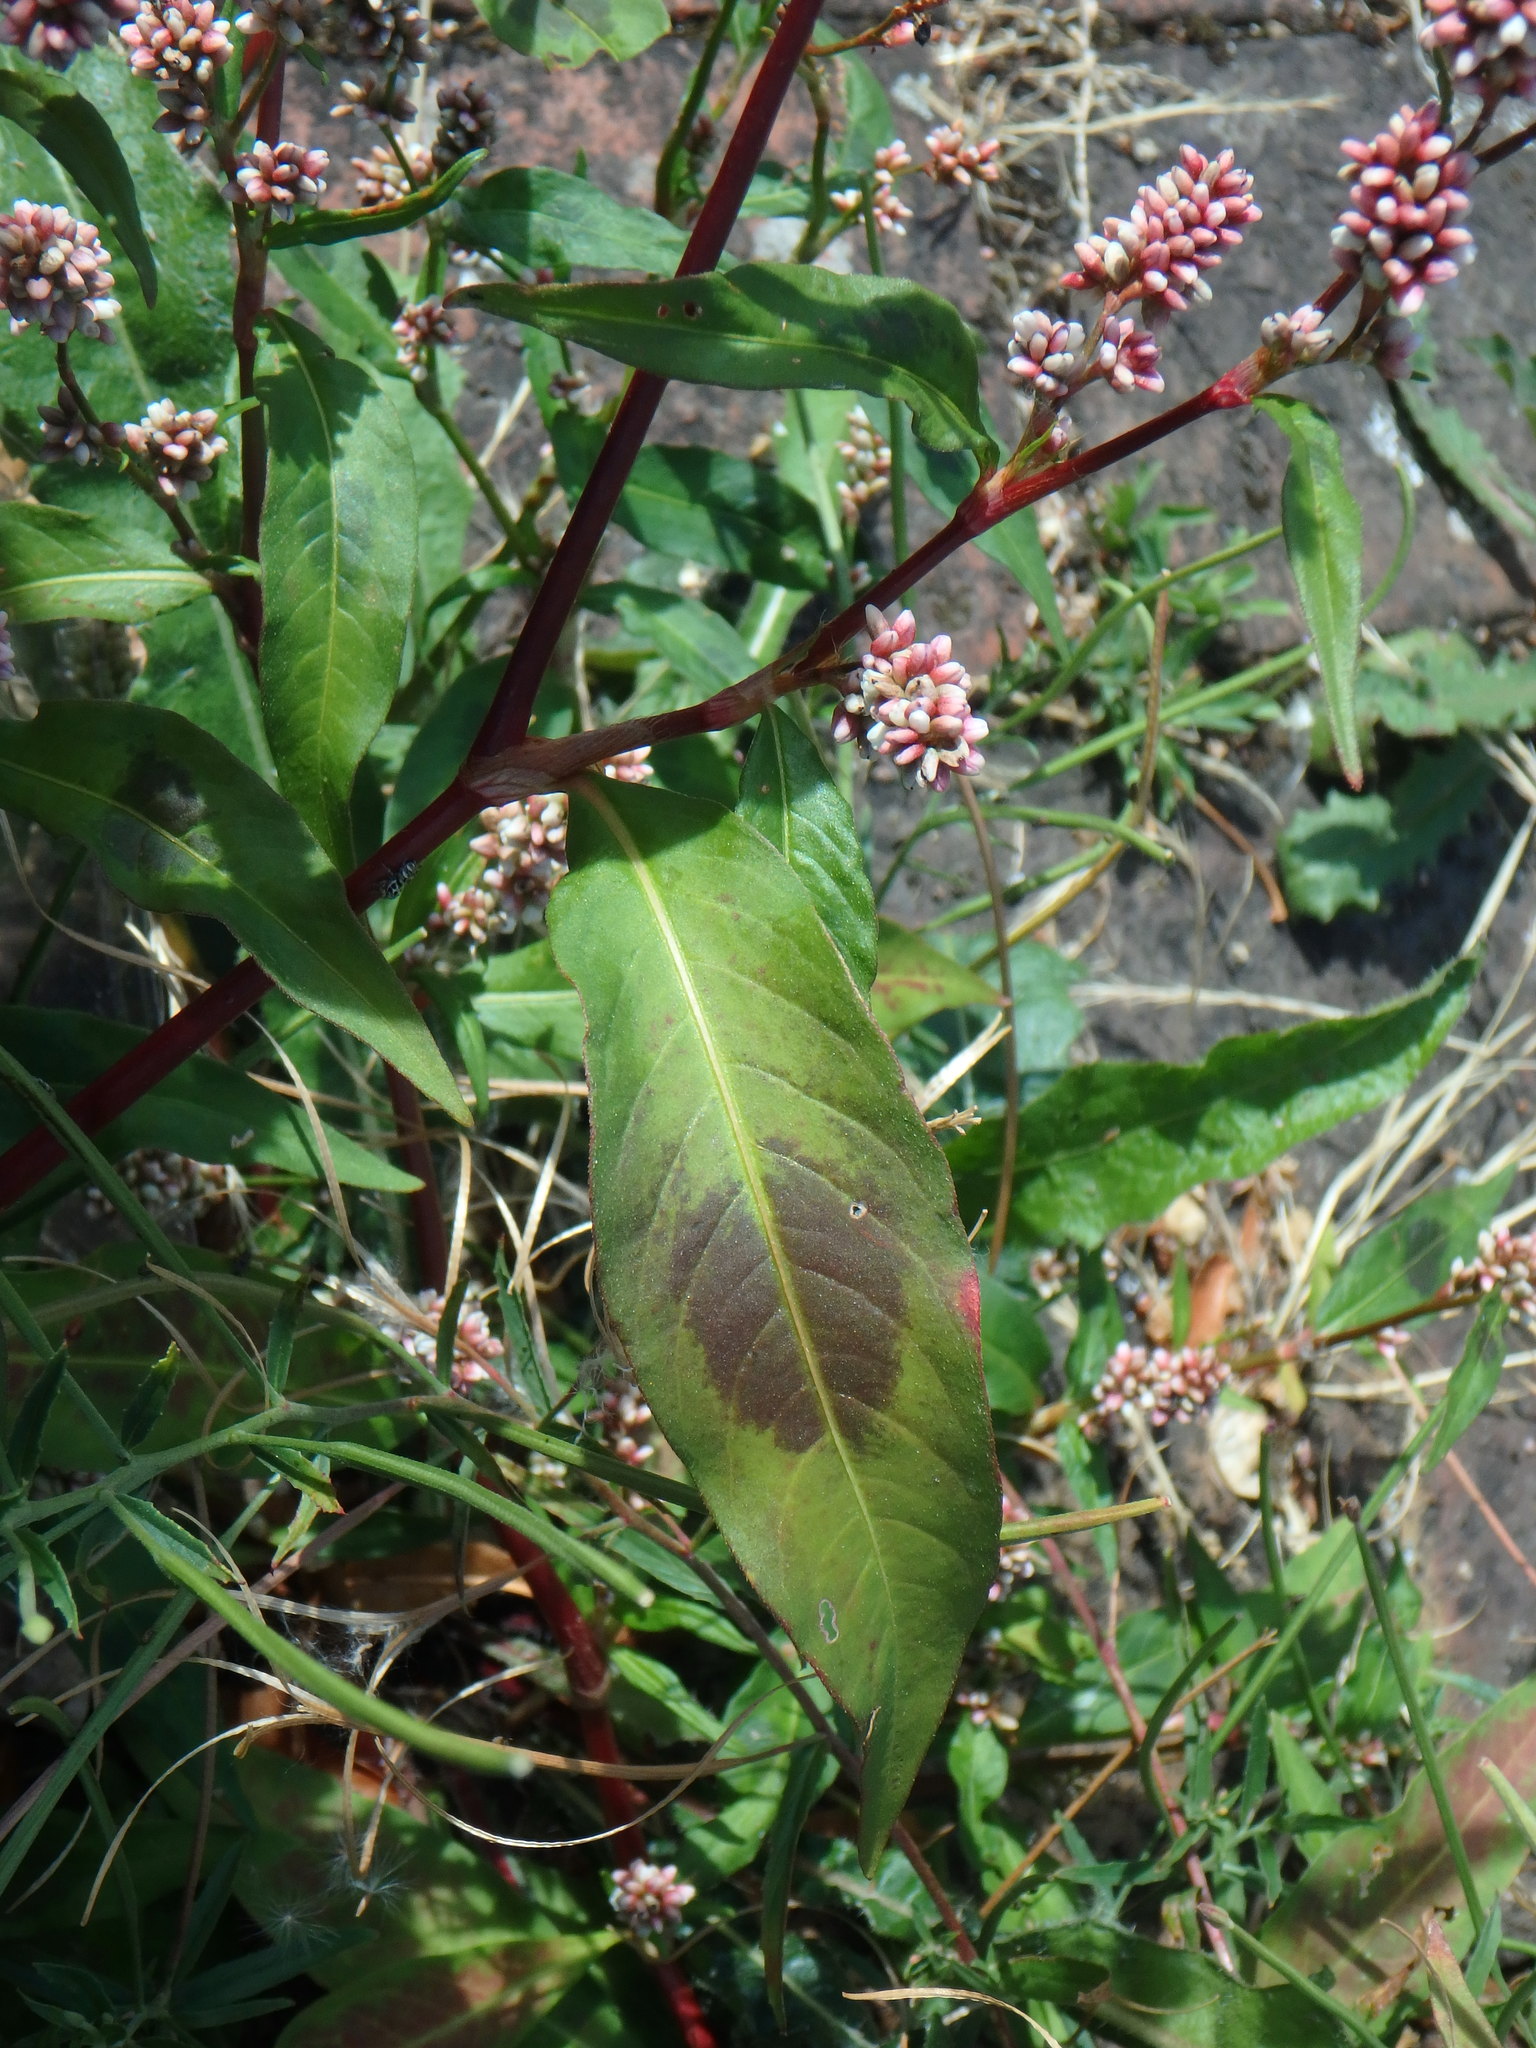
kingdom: Plantae
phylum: Tracheophyta
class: Magnoliopsida
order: Caryophyllales
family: Polygonaceae
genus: Persicaria
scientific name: Persicaria maculosa
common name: Redshank
